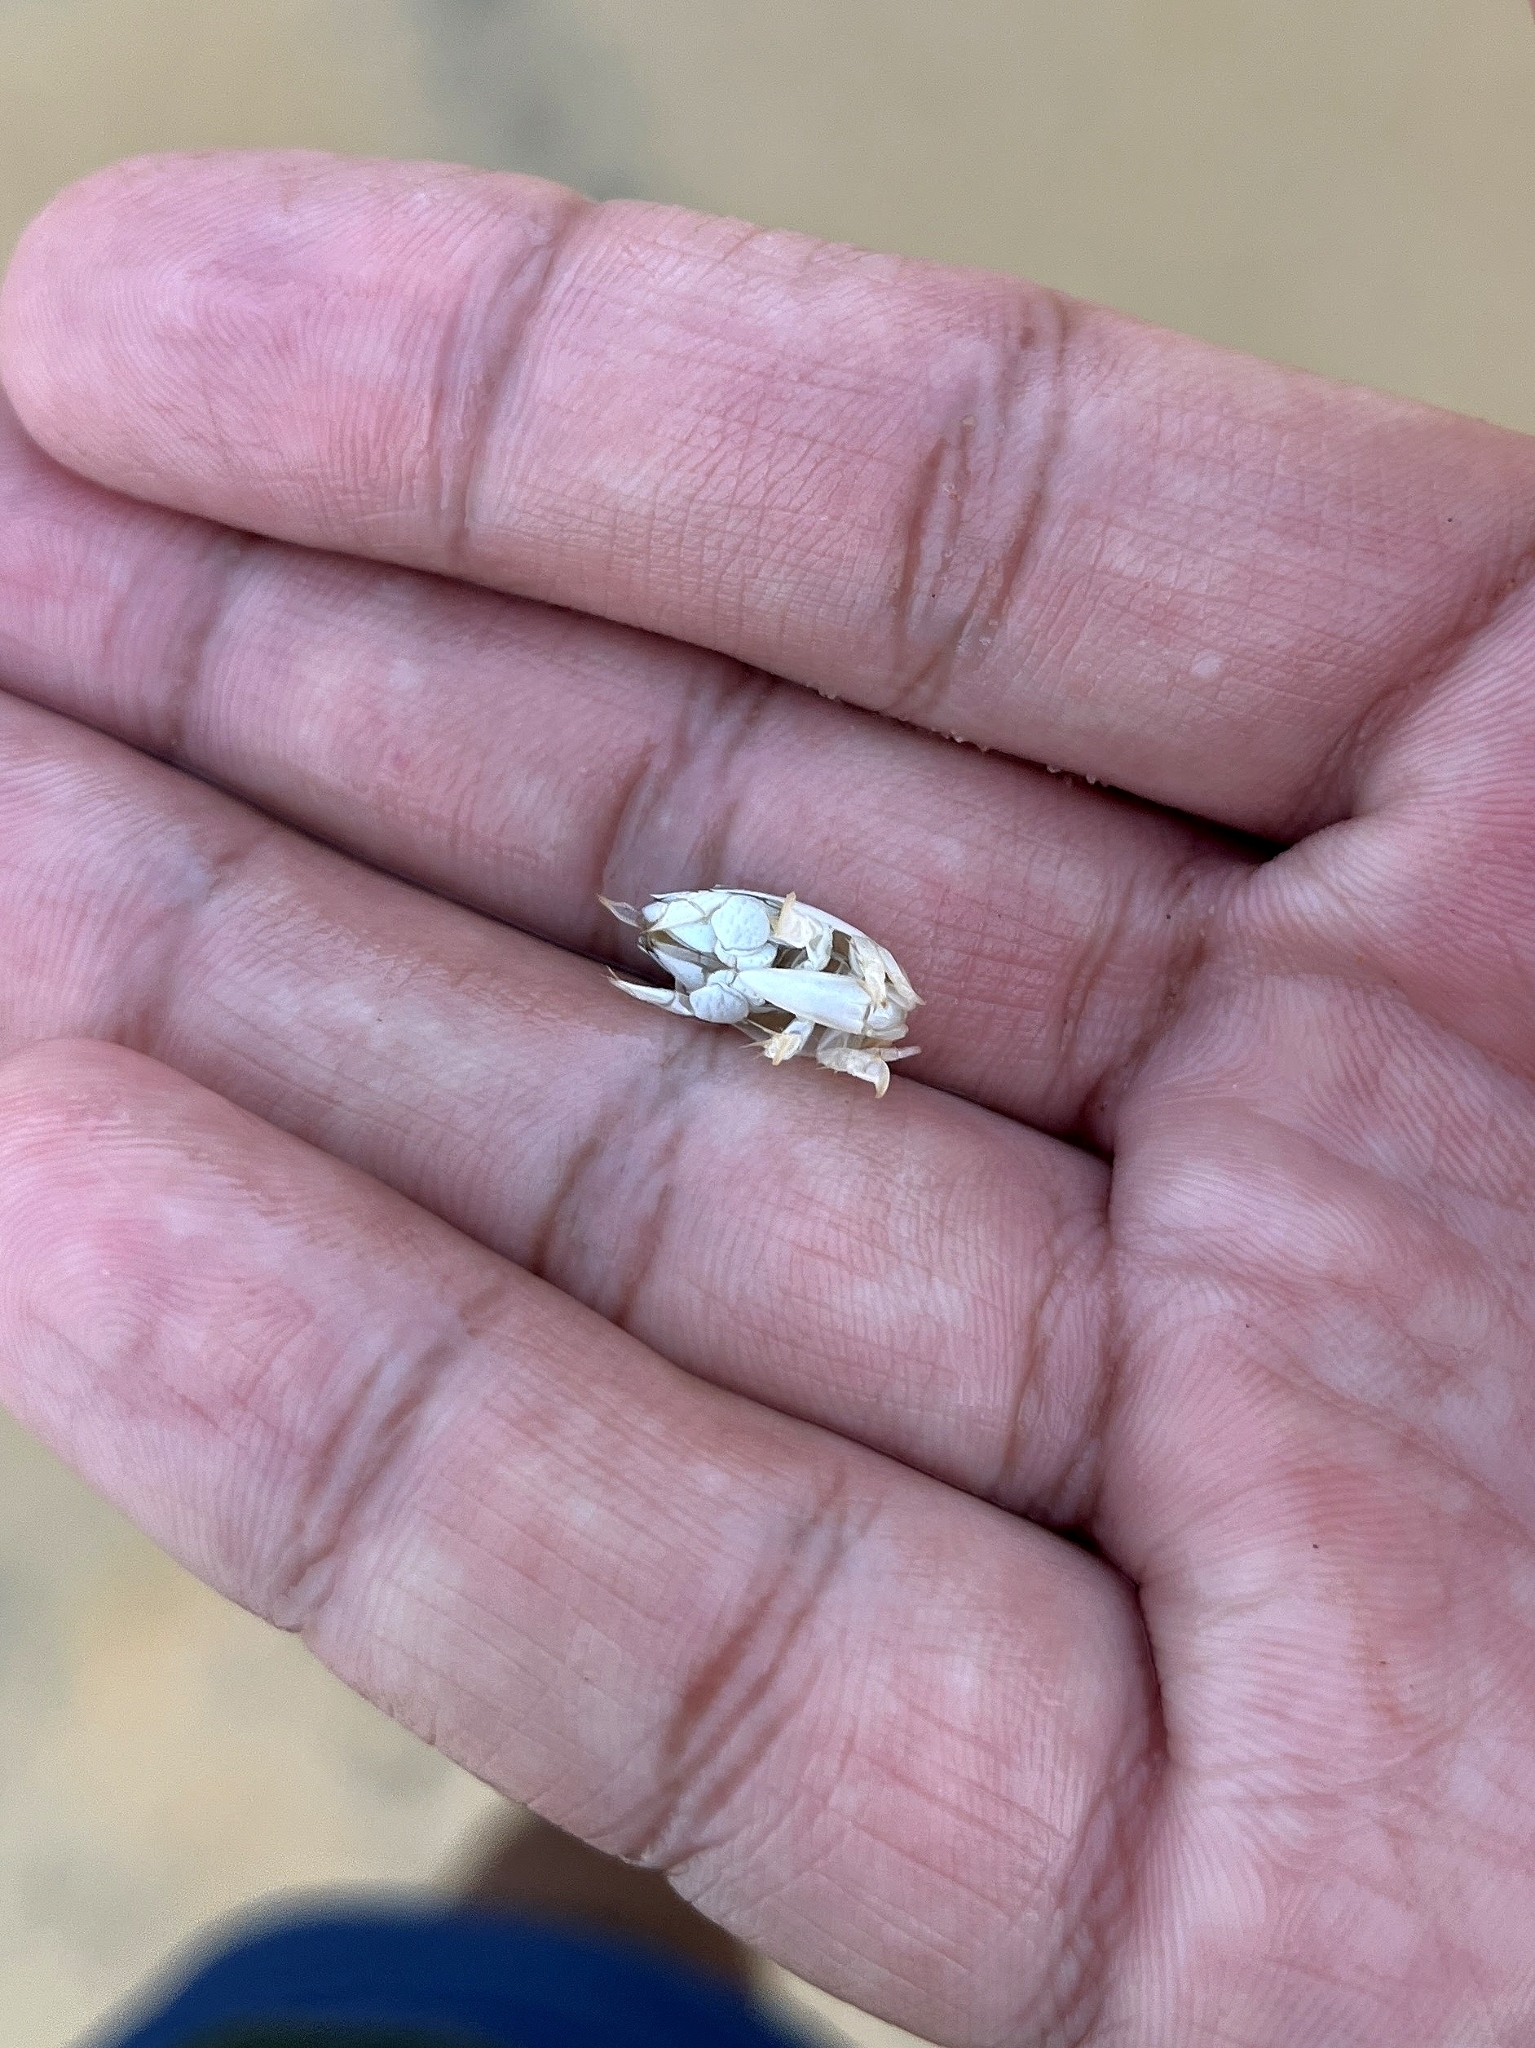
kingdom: Animalia
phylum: Arthropoda
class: Malacostraca
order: Decapoda
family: Hippidae
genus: Emerita
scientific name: Emerita emeritus
